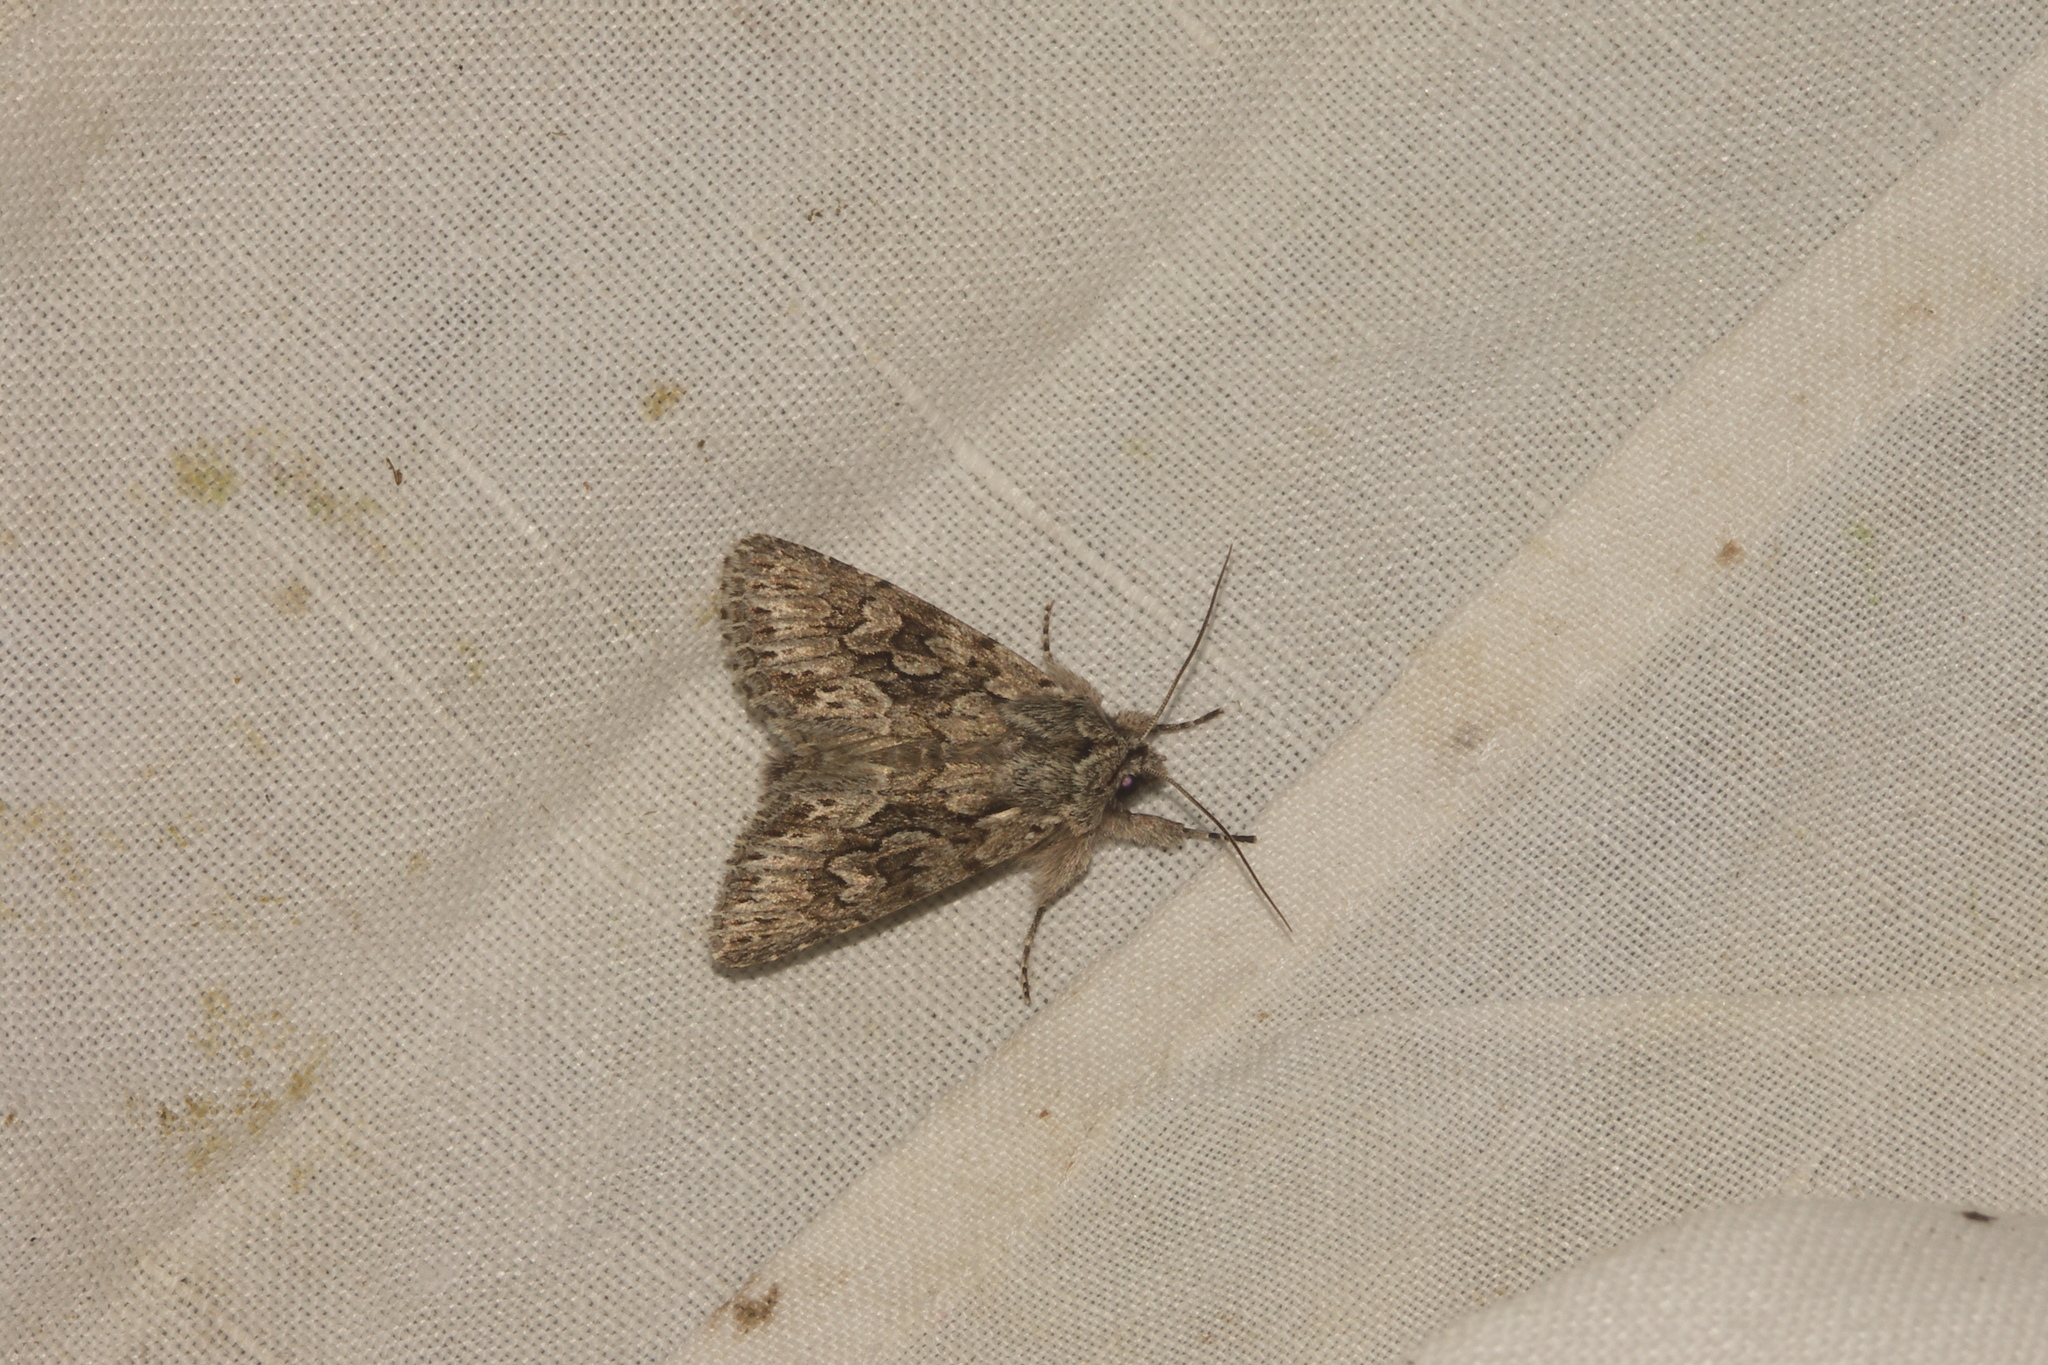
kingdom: Animalia
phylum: Arthropoda
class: Insecta
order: Lepidoptera
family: Noctuidae
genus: Xylocampa
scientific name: Xylocampa areola
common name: Early grey
